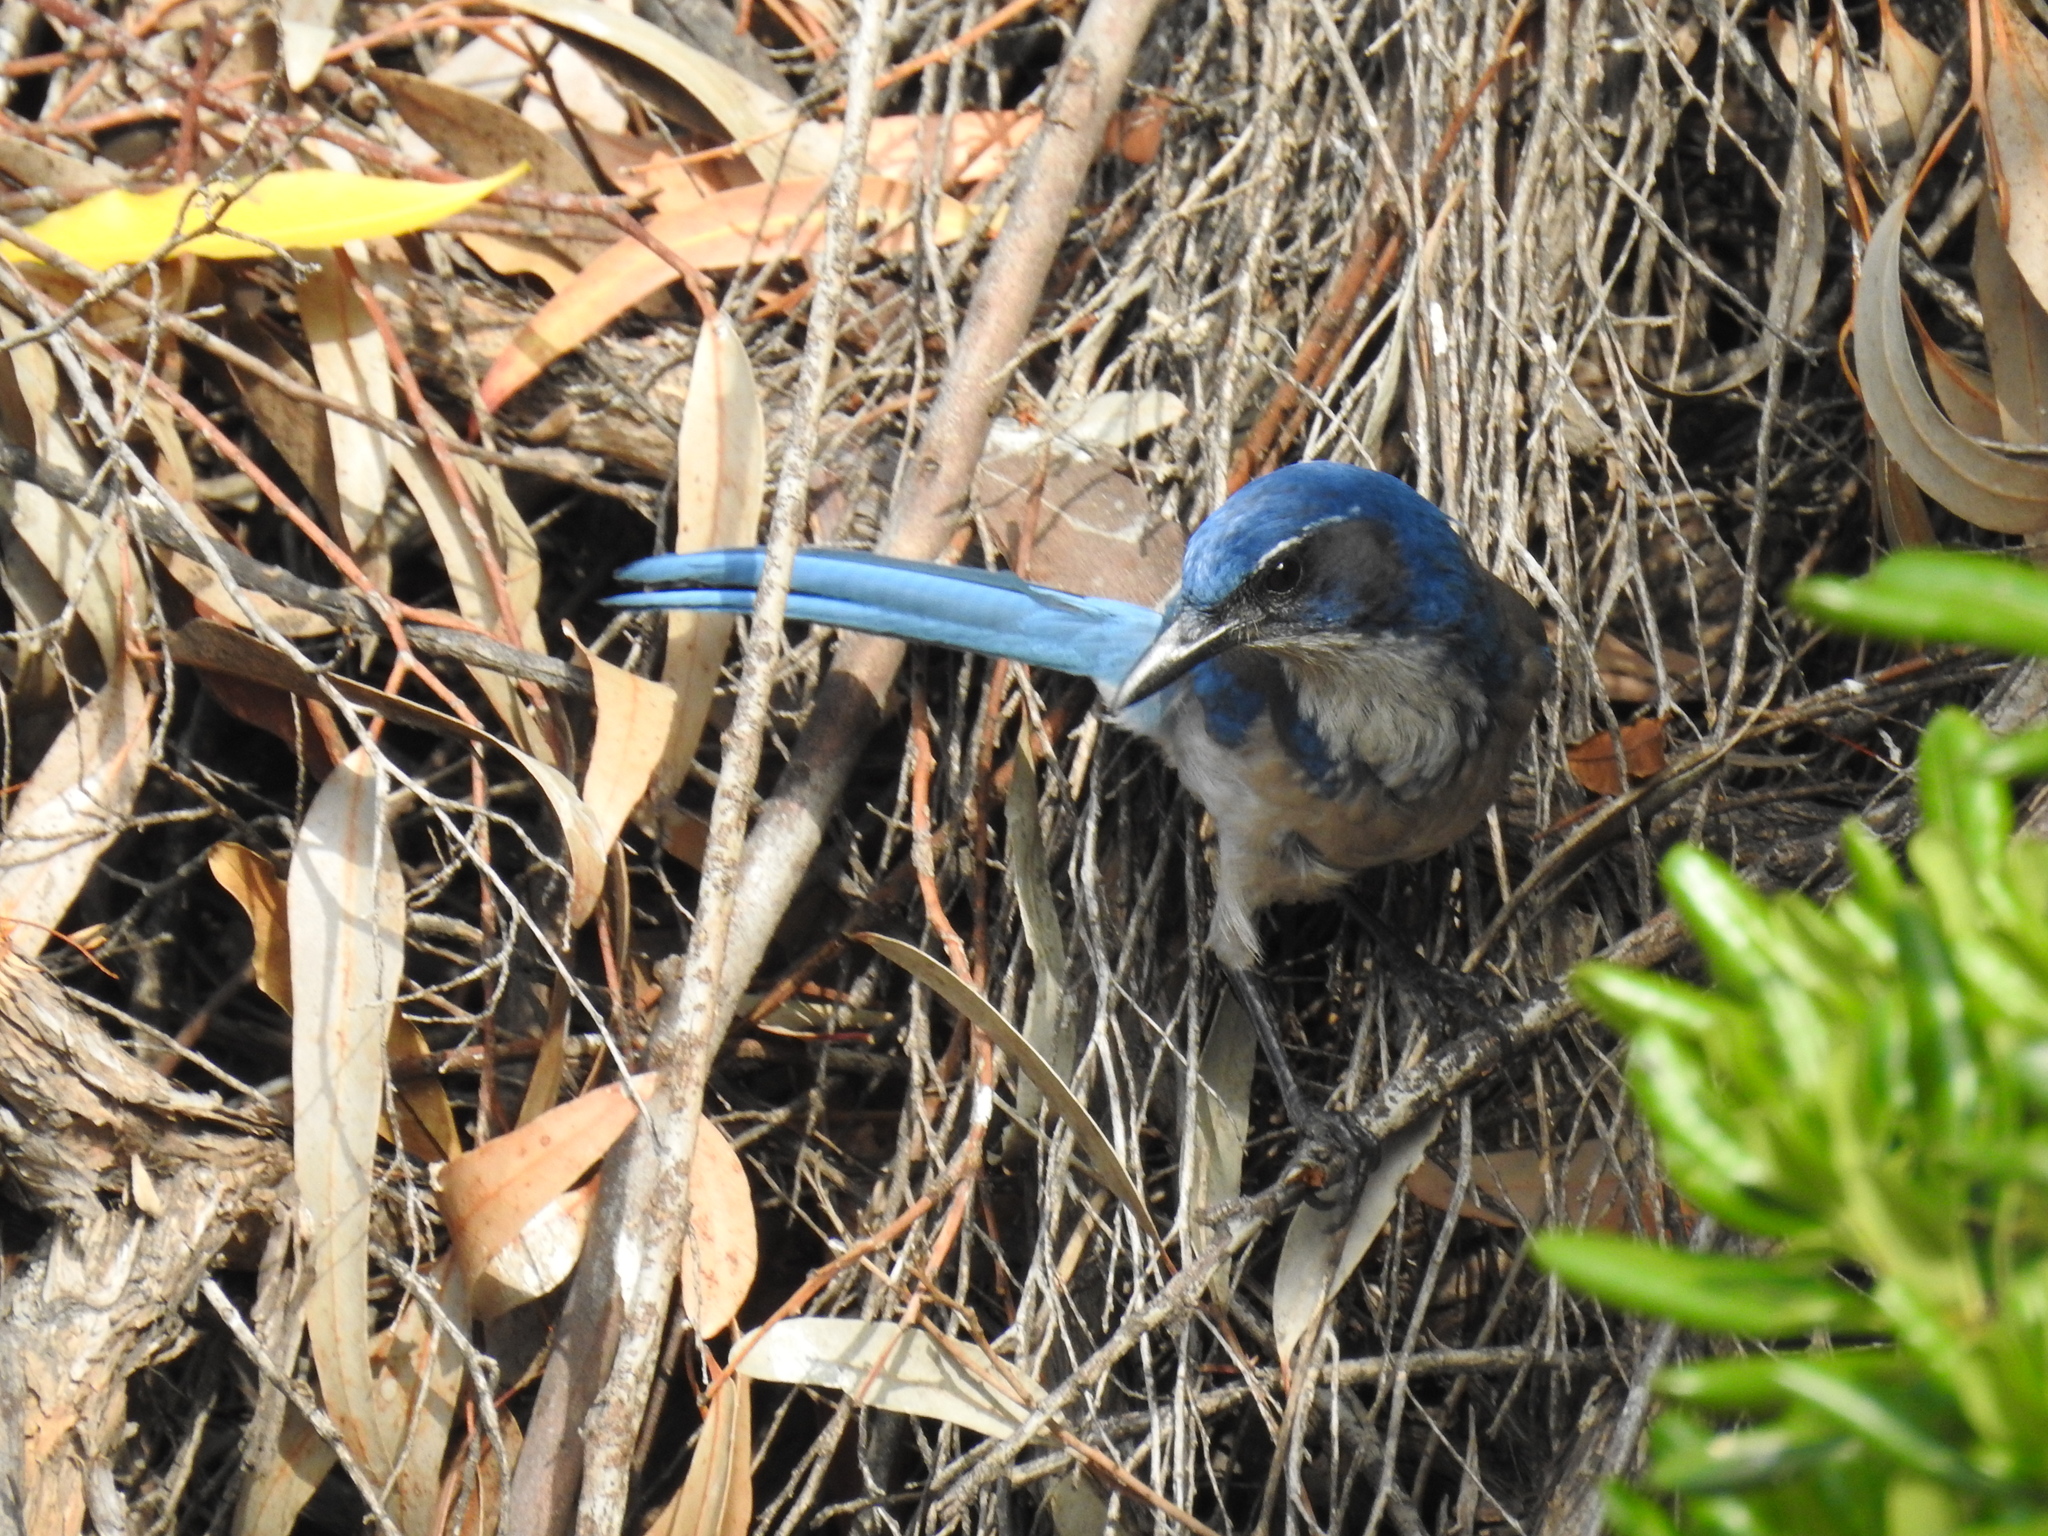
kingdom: Animalia
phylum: Chordata
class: Aves
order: Passeriformes
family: Corvidae
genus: Aphelocoma
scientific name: Aphelocoma californica
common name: California scrub-jay
